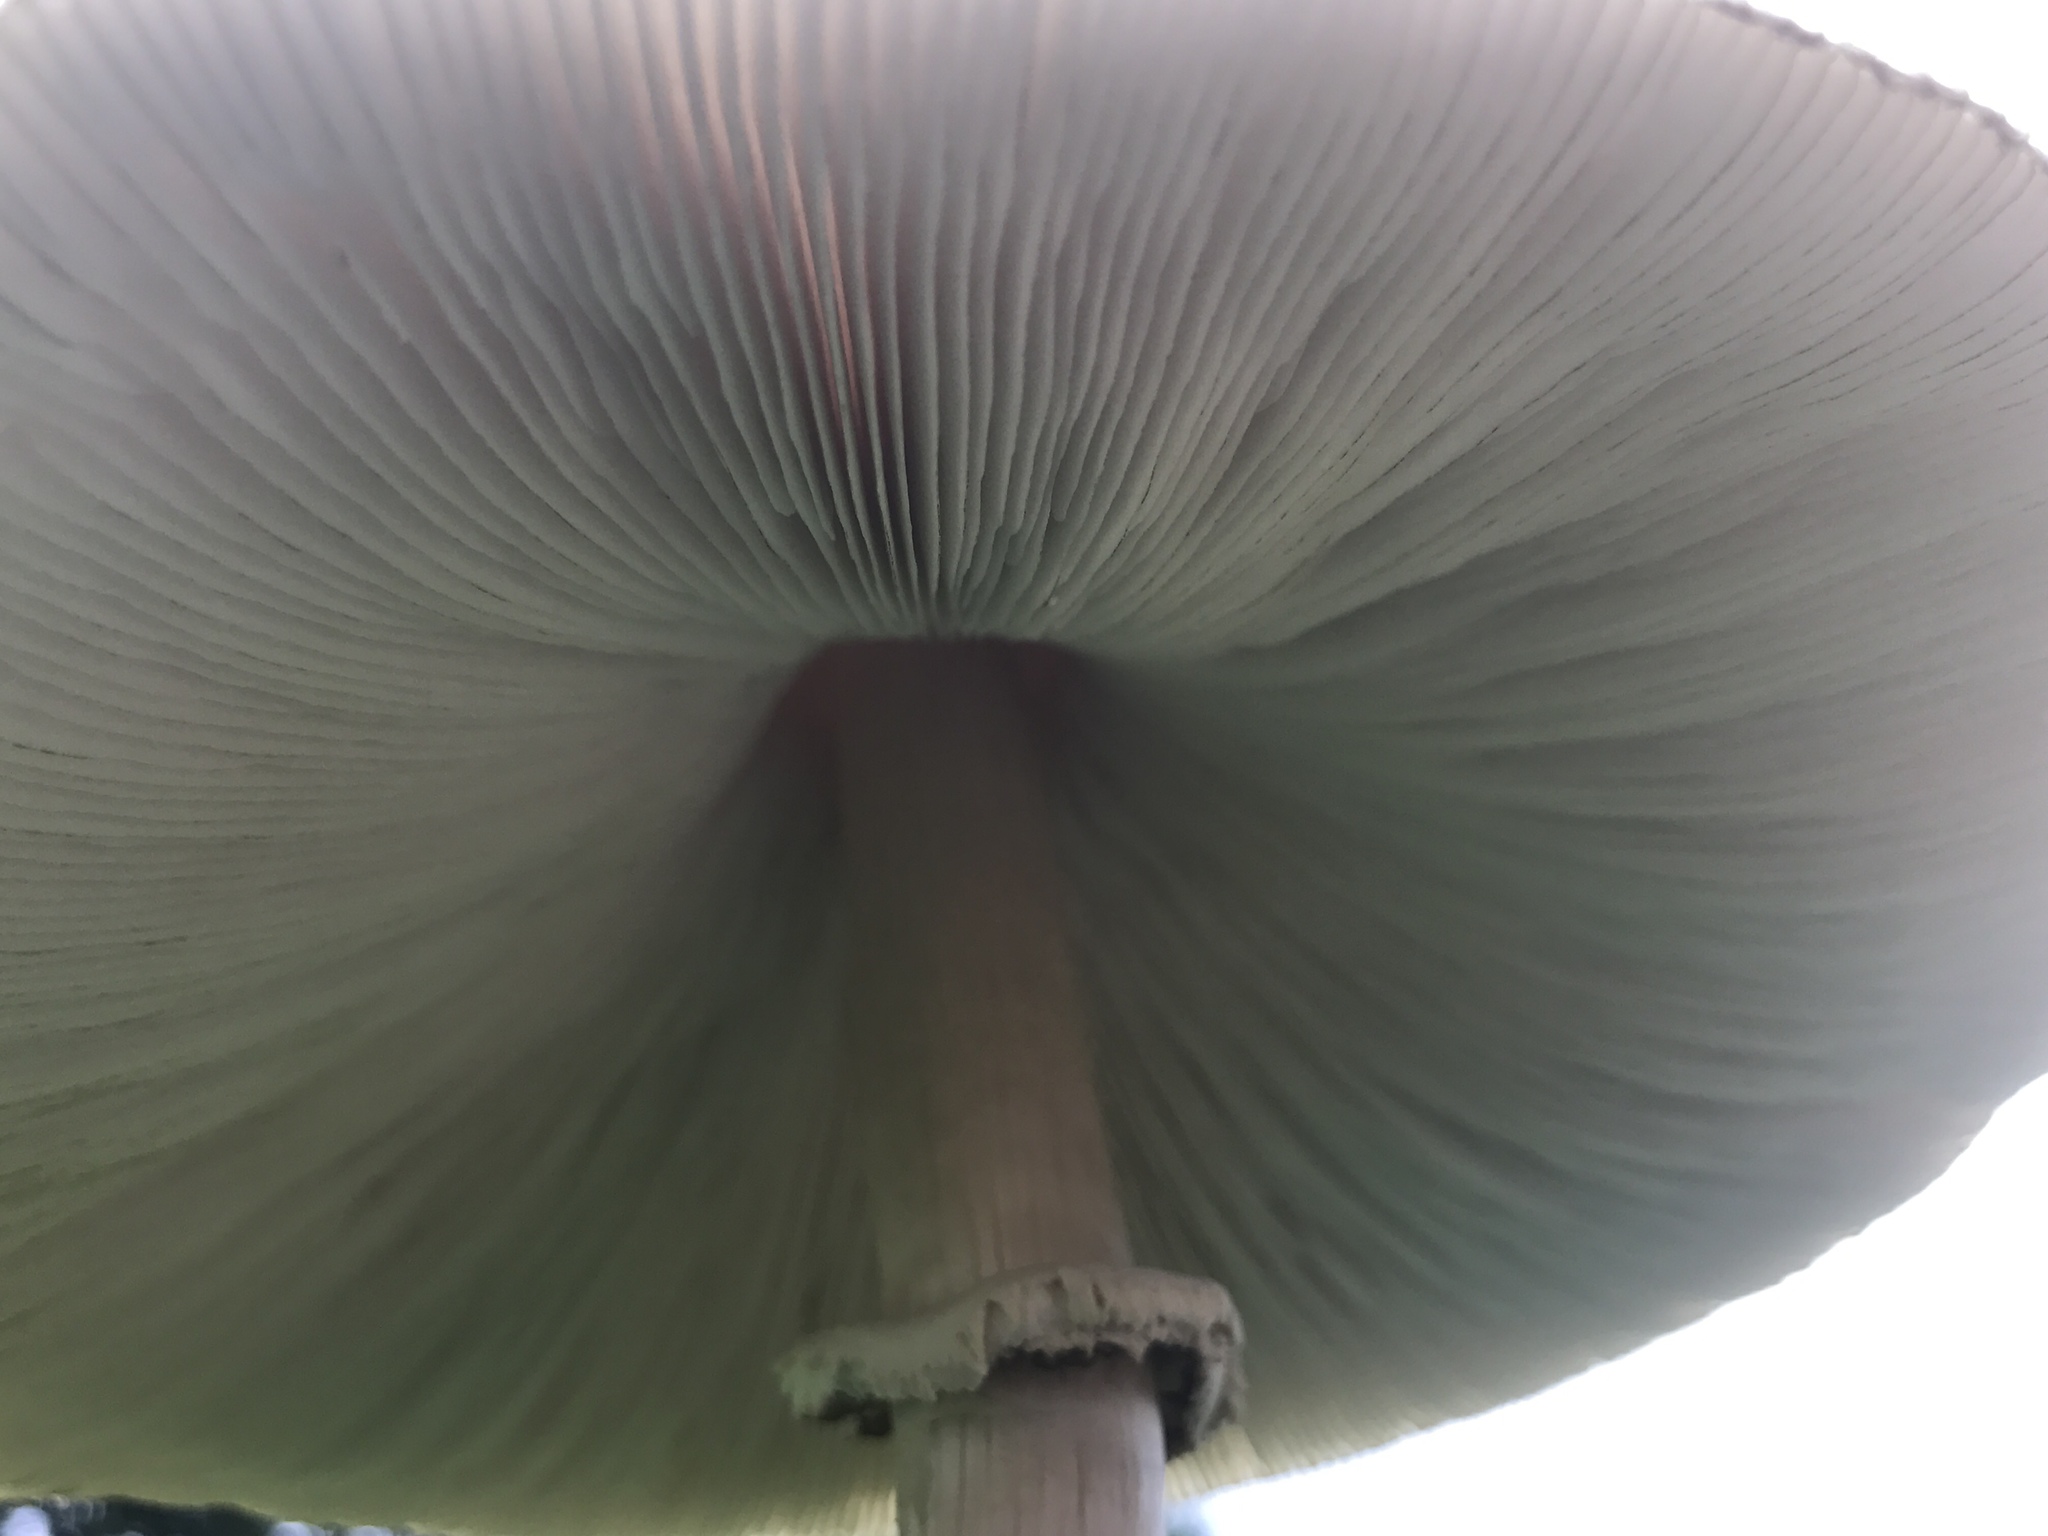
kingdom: Fungi
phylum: Basidiomycota
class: Agaricomycetes
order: Agaricales
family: Agaricaceae
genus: Chlorophyllum
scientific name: Chlorophyllum molybdites
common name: False parasol
